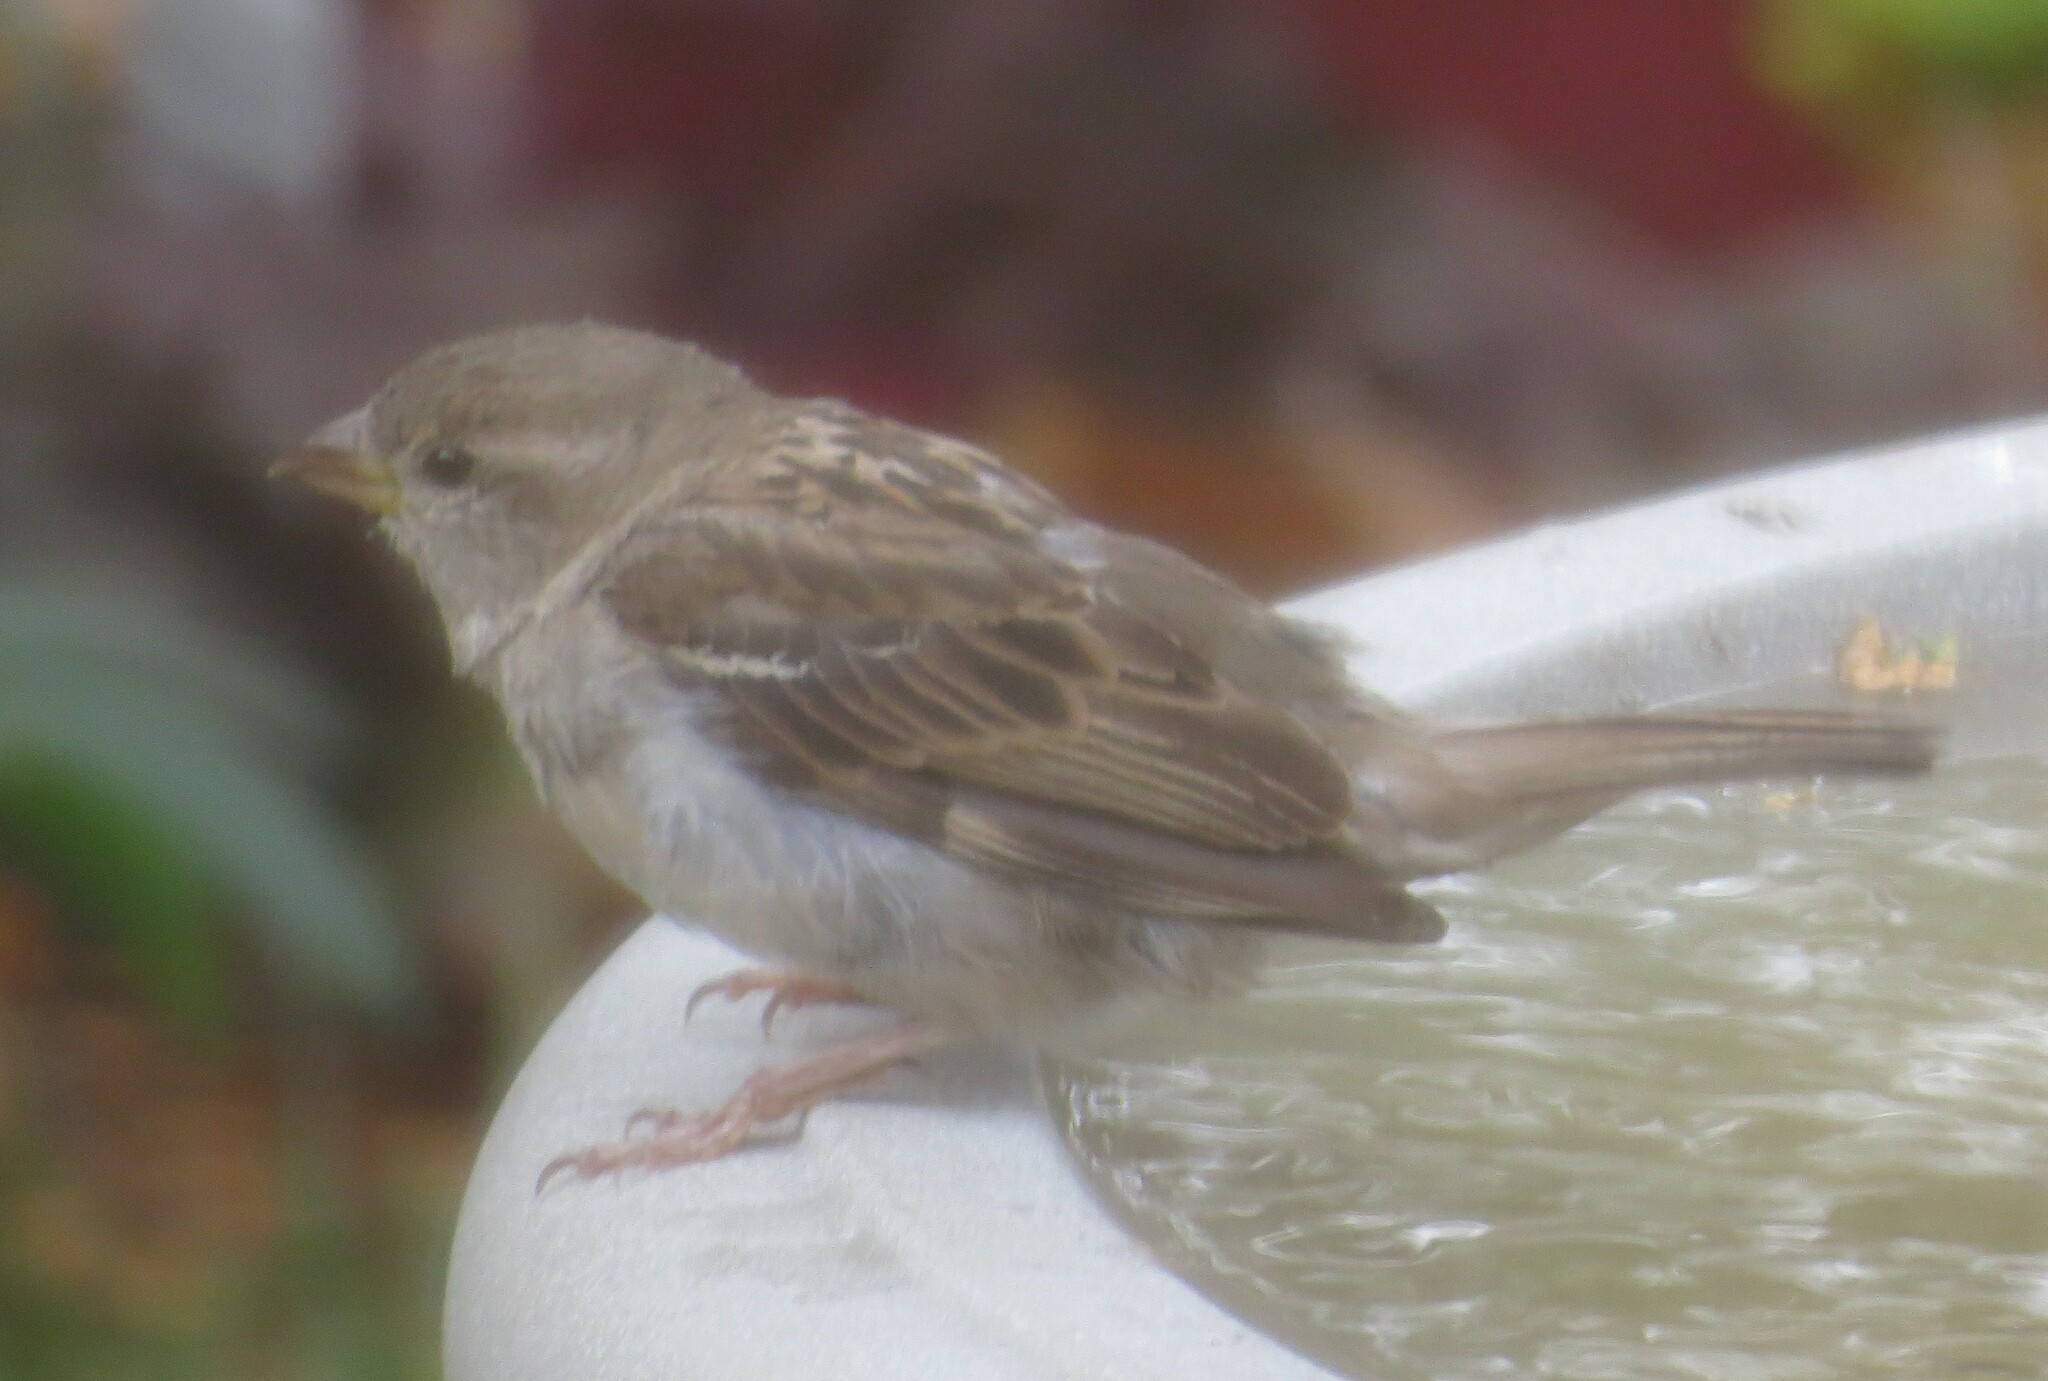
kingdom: Animalia
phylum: Chordata
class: Aves
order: Passeriformes
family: Passeridae
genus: Passer
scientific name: Passer domesticus
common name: House sparrow
